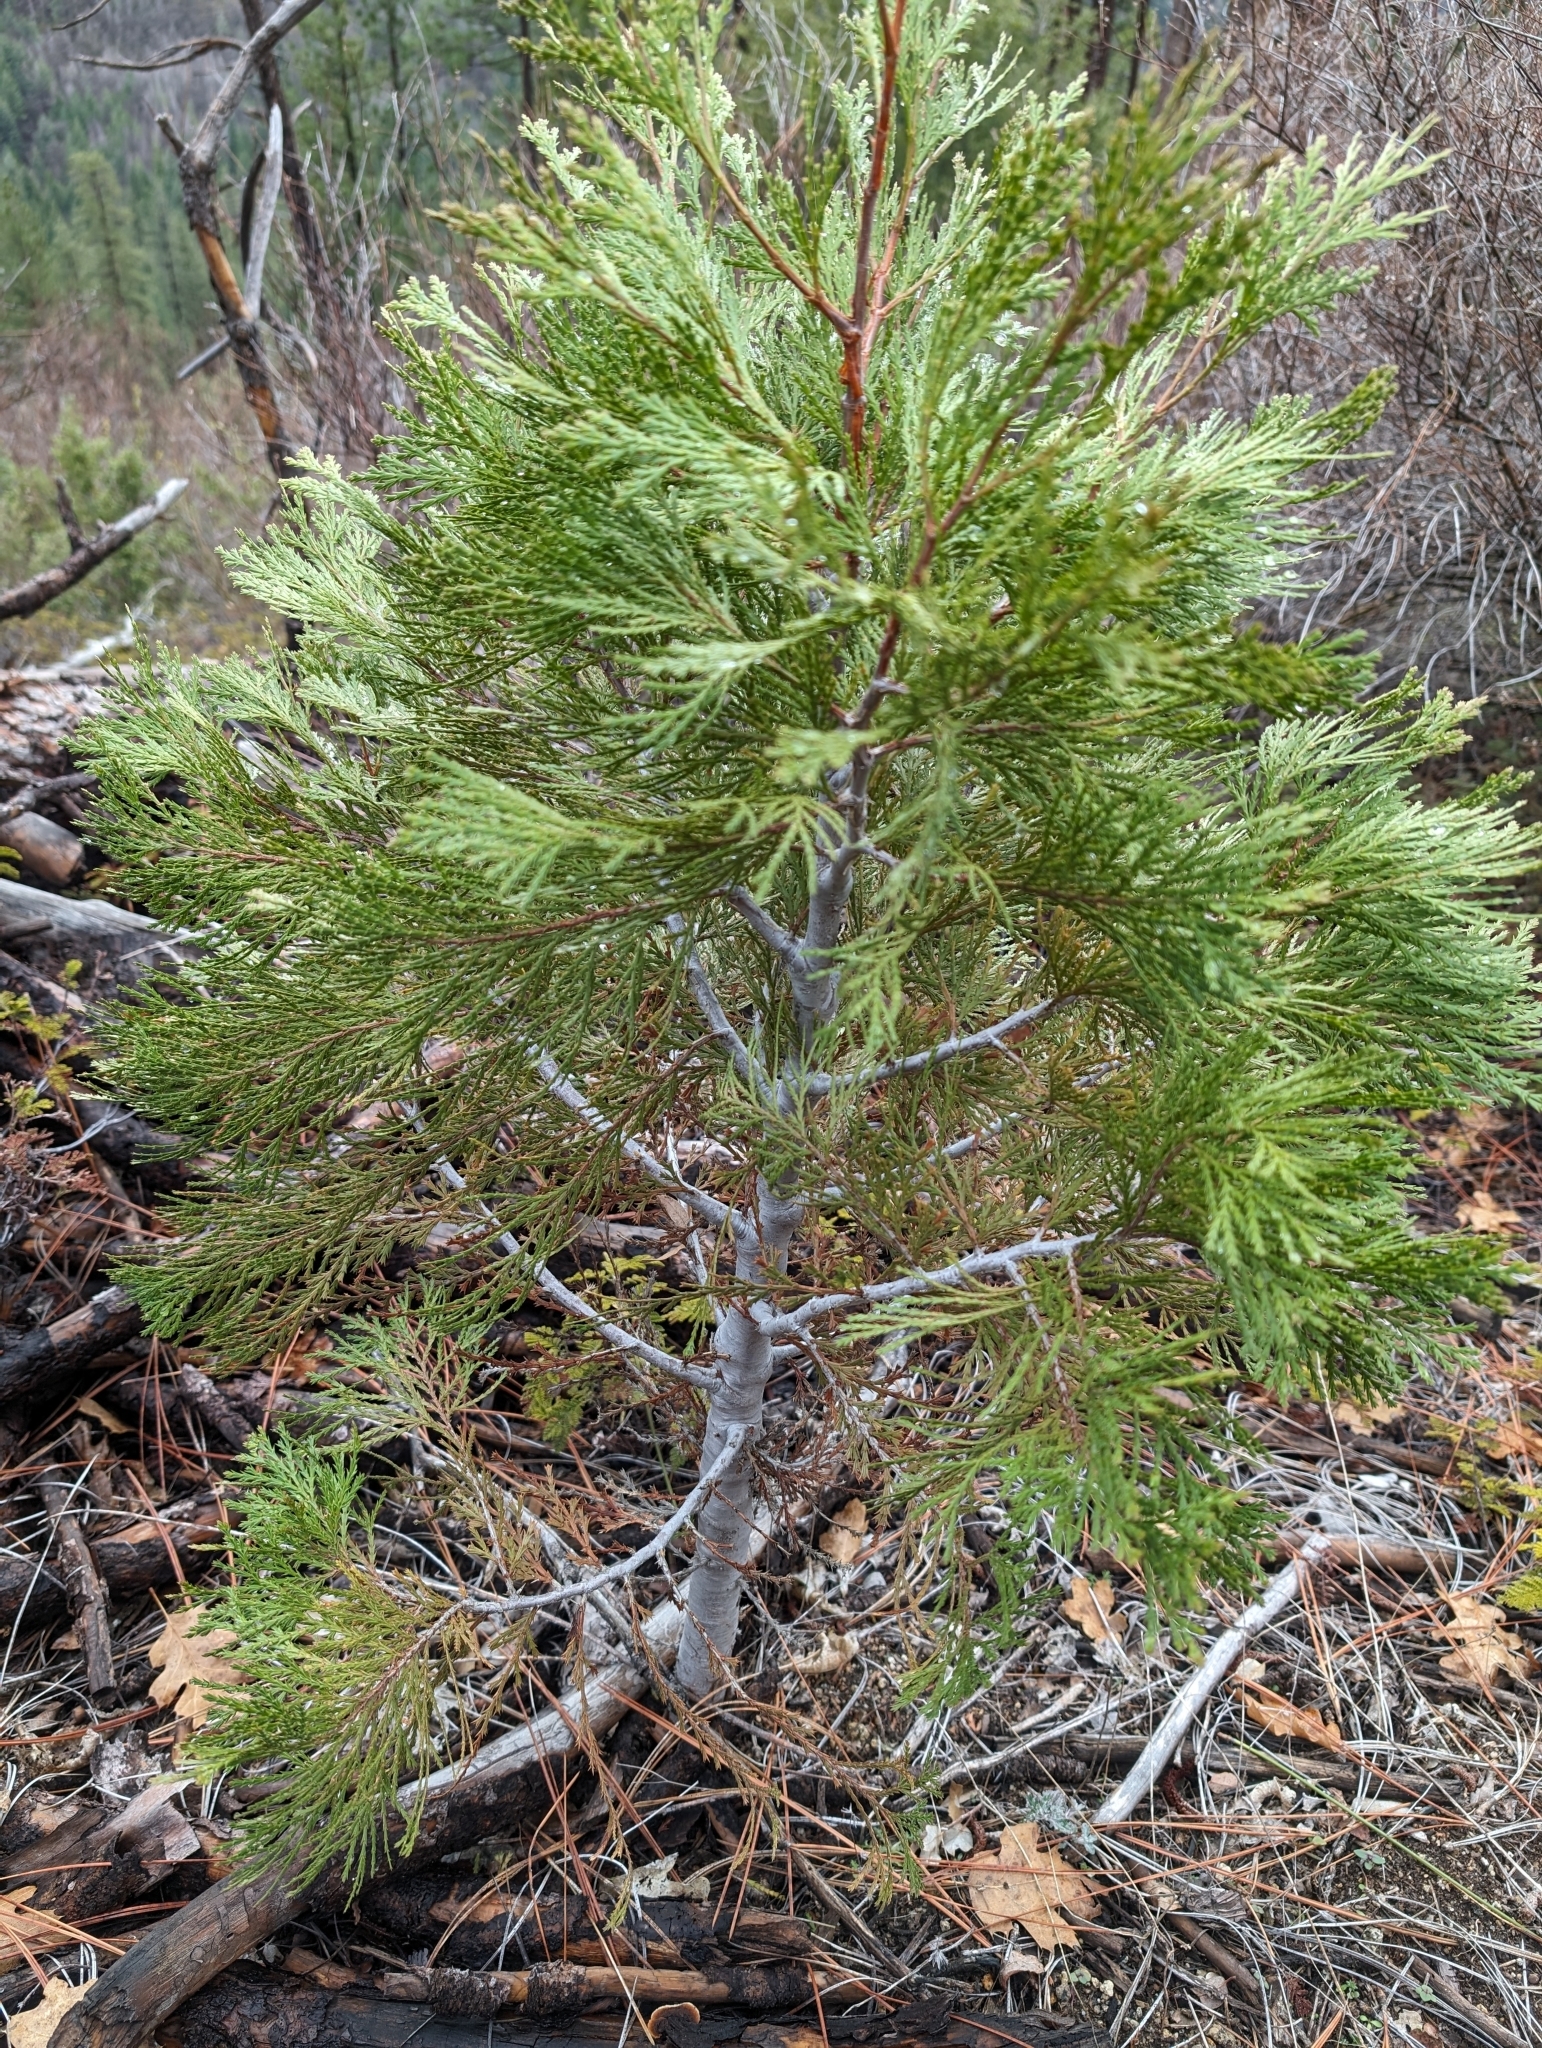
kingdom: Plantae
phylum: Tracheophyta
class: Pinopsida
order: Pinales
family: Cupressaceae
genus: Calocedrus
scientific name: Calocedrus decurrens
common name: Californian incense-cedar
